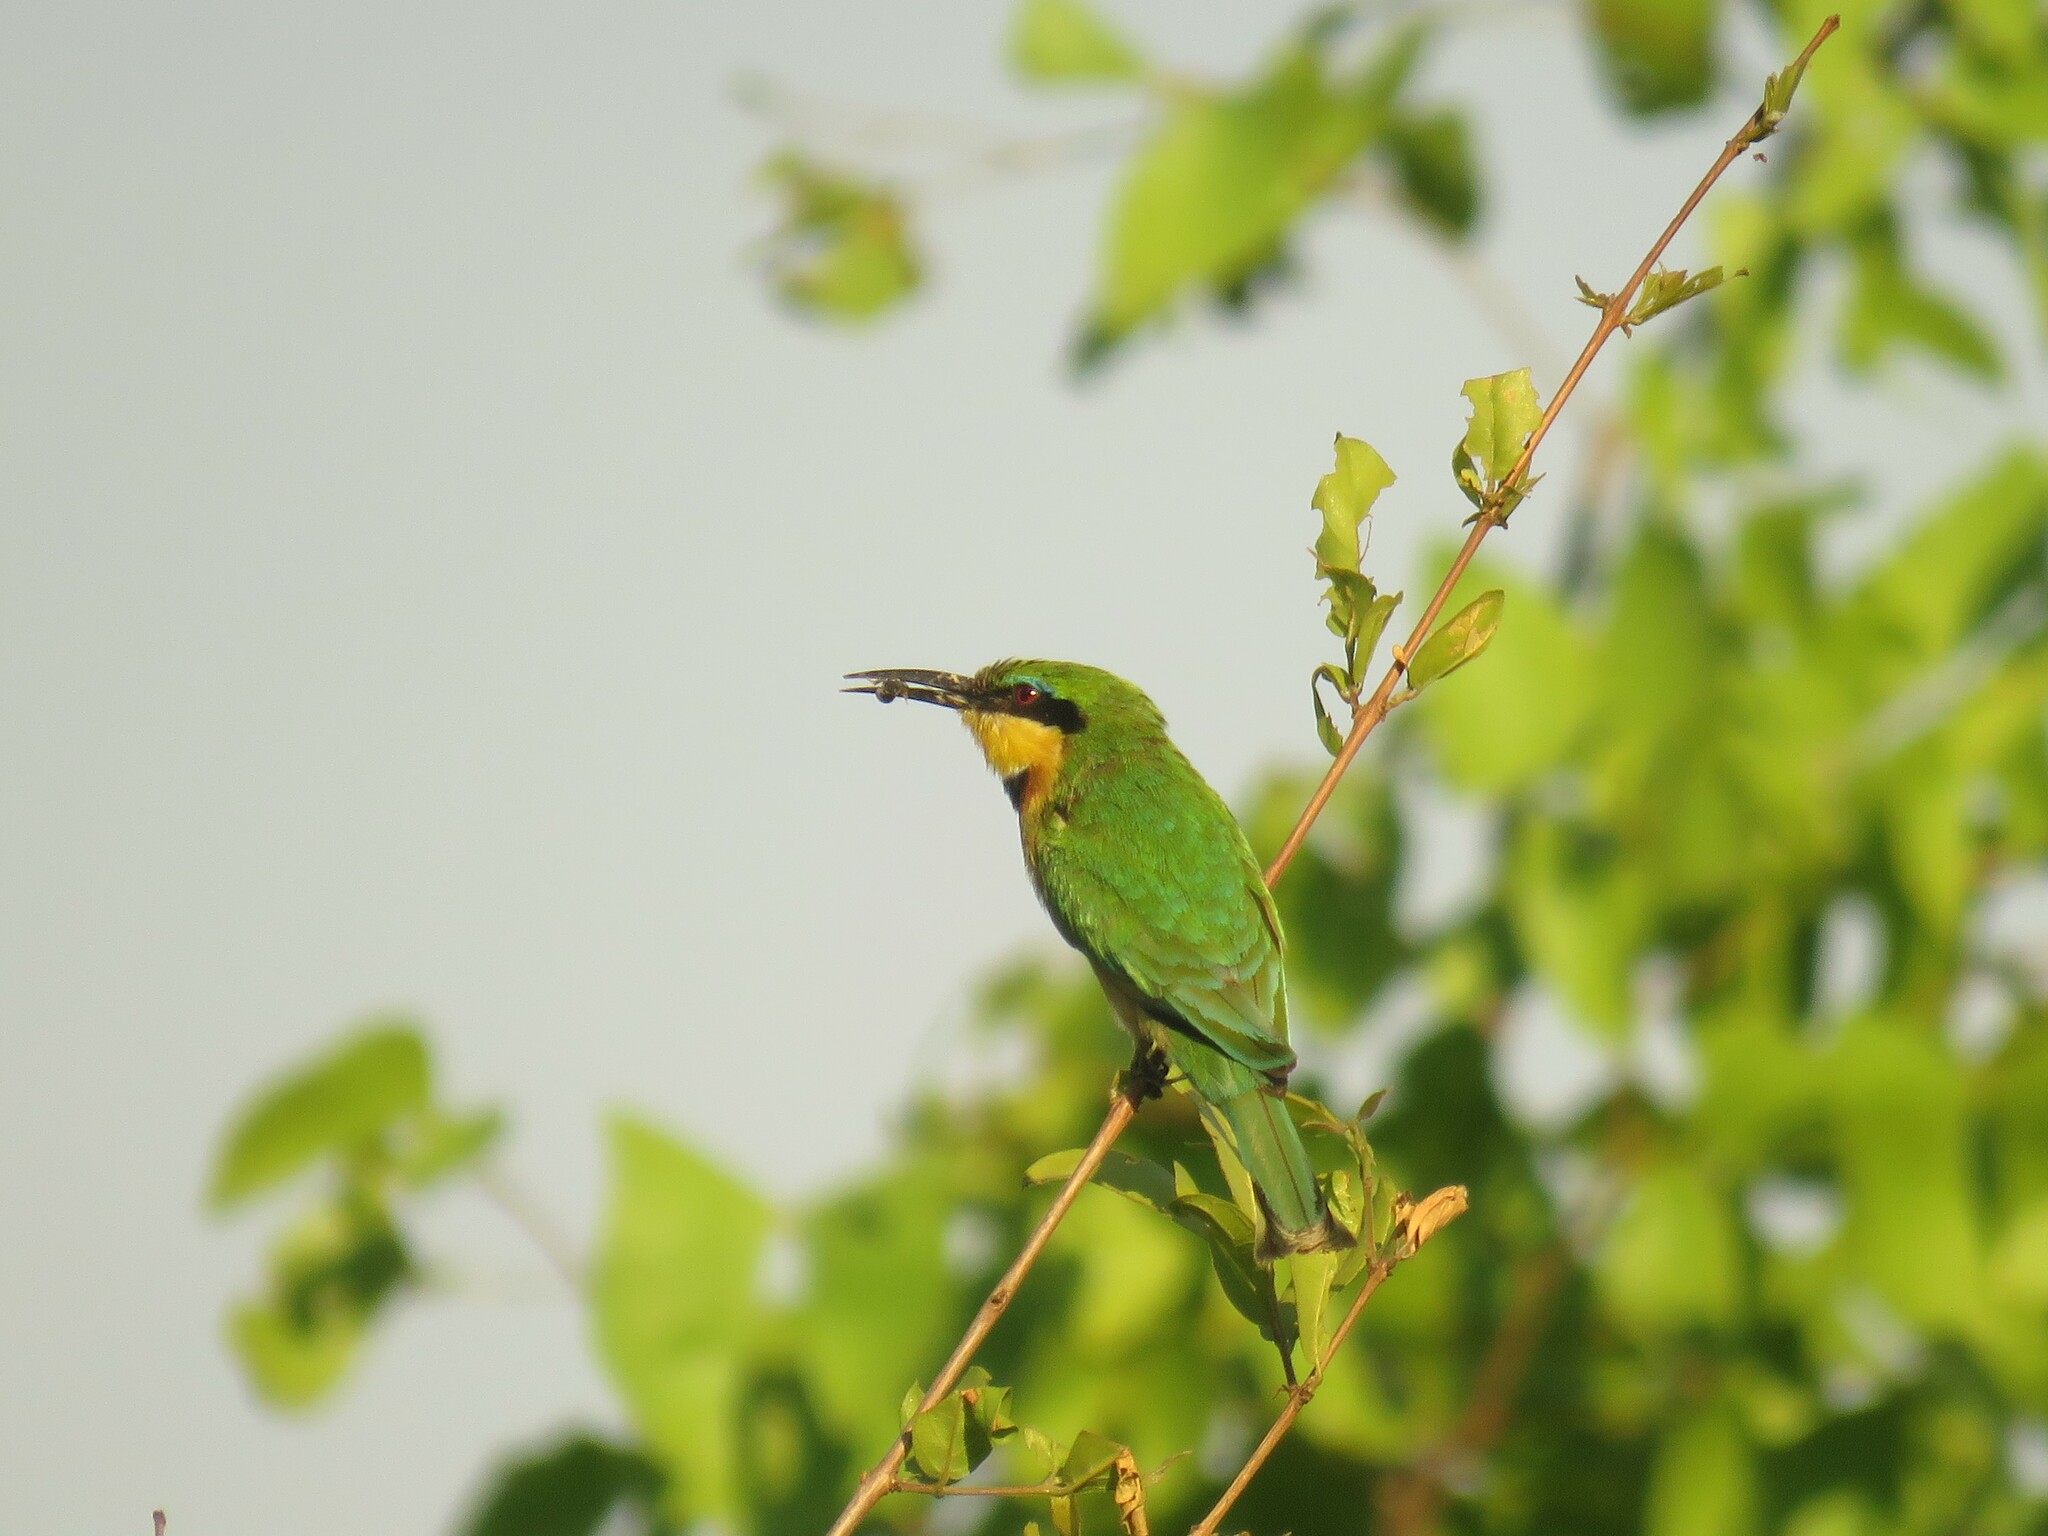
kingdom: Animalia
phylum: Chordata
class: Aves
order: Coraciiformes
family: Meropidae
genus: Merops
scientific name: Merops pusillus
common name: Little bee-eater
